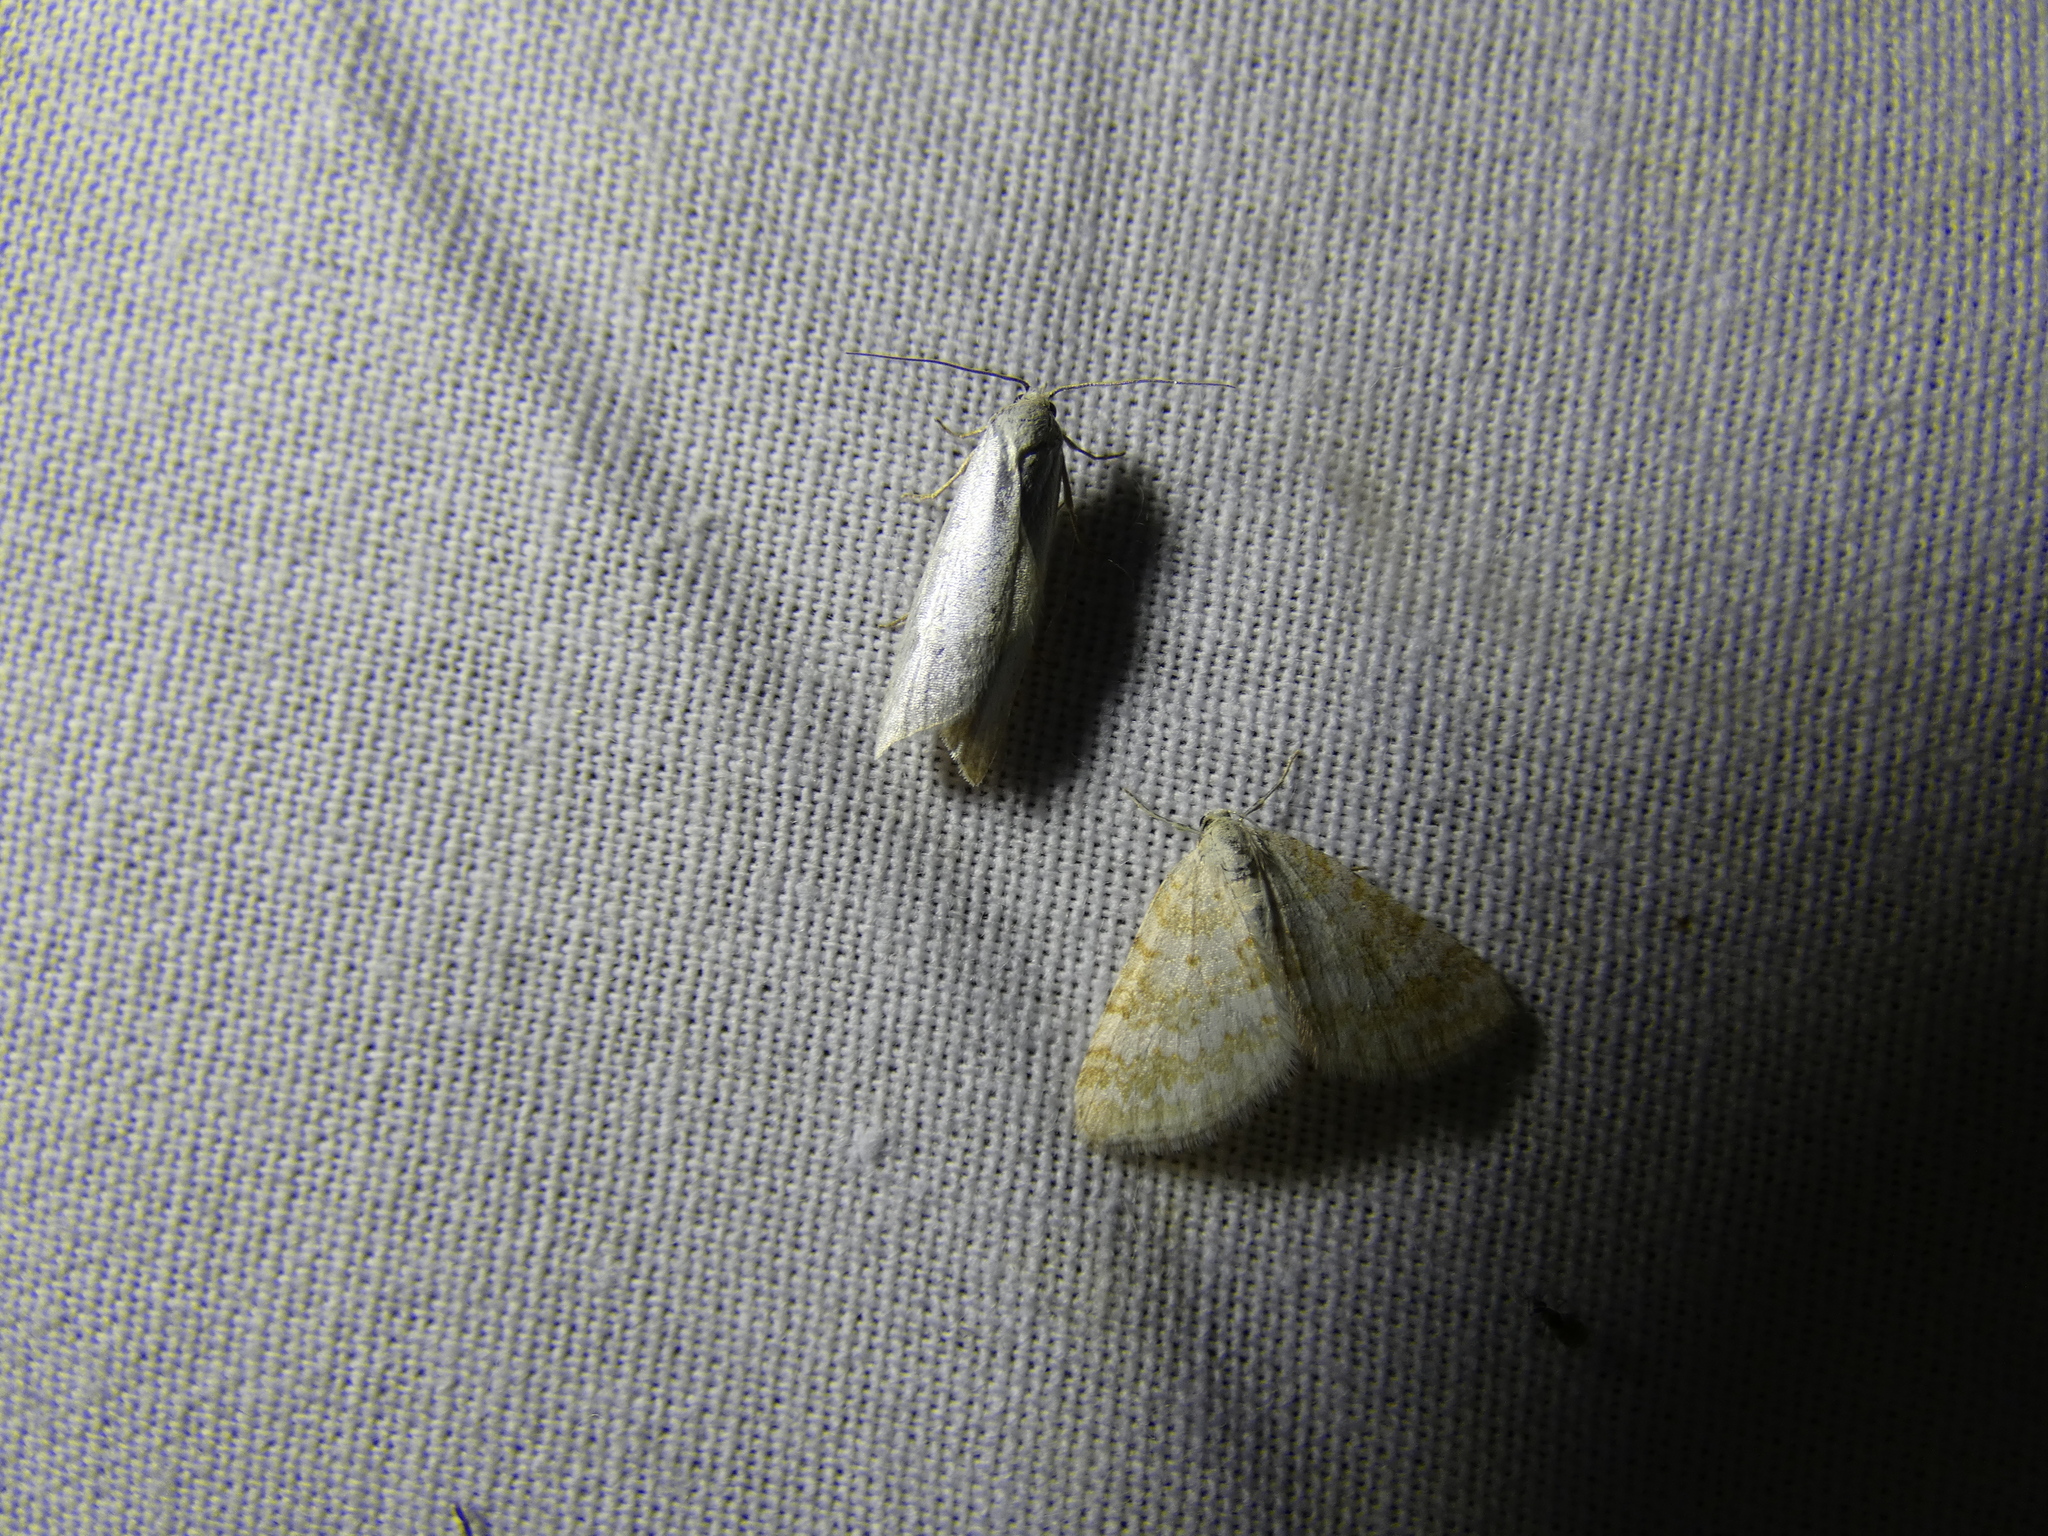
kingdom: Animalia
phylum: Arthropoda
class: Insecta
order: Lepidoptera
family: Geometridae
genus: Perizoma
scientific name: Perizoma albulata
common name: Grass rivulet
